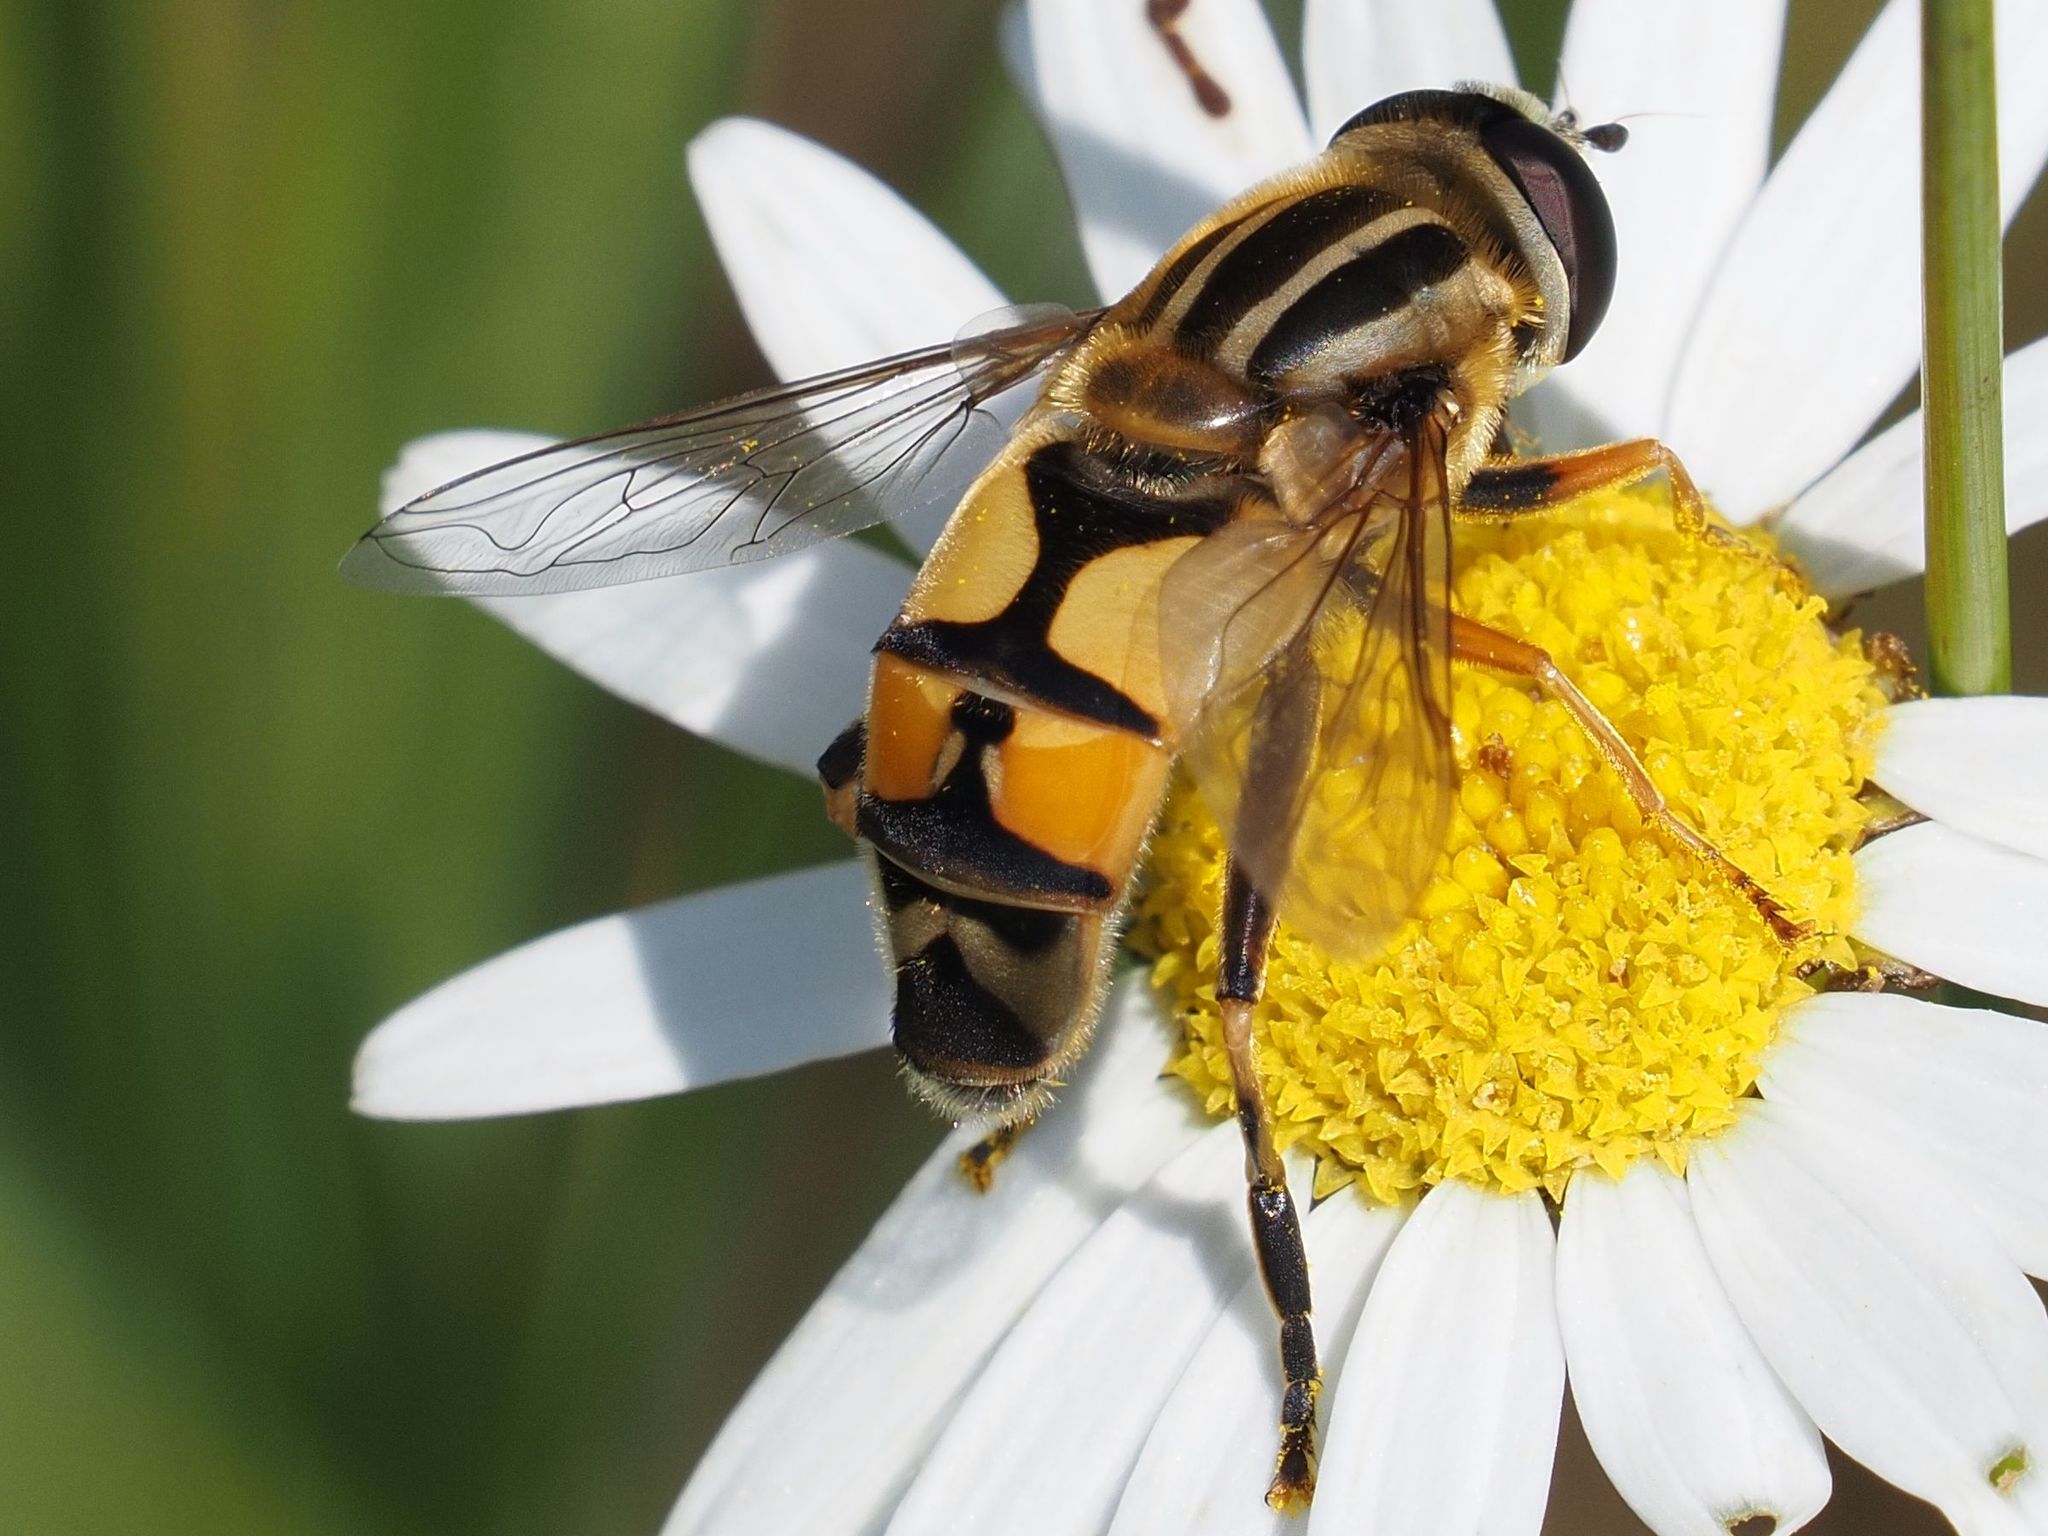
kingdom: Animalia
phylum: Arthropoda
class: Insecta
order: Diptera
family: Syrphidae
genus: Helophilus
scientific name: Helophilus trivittatus
